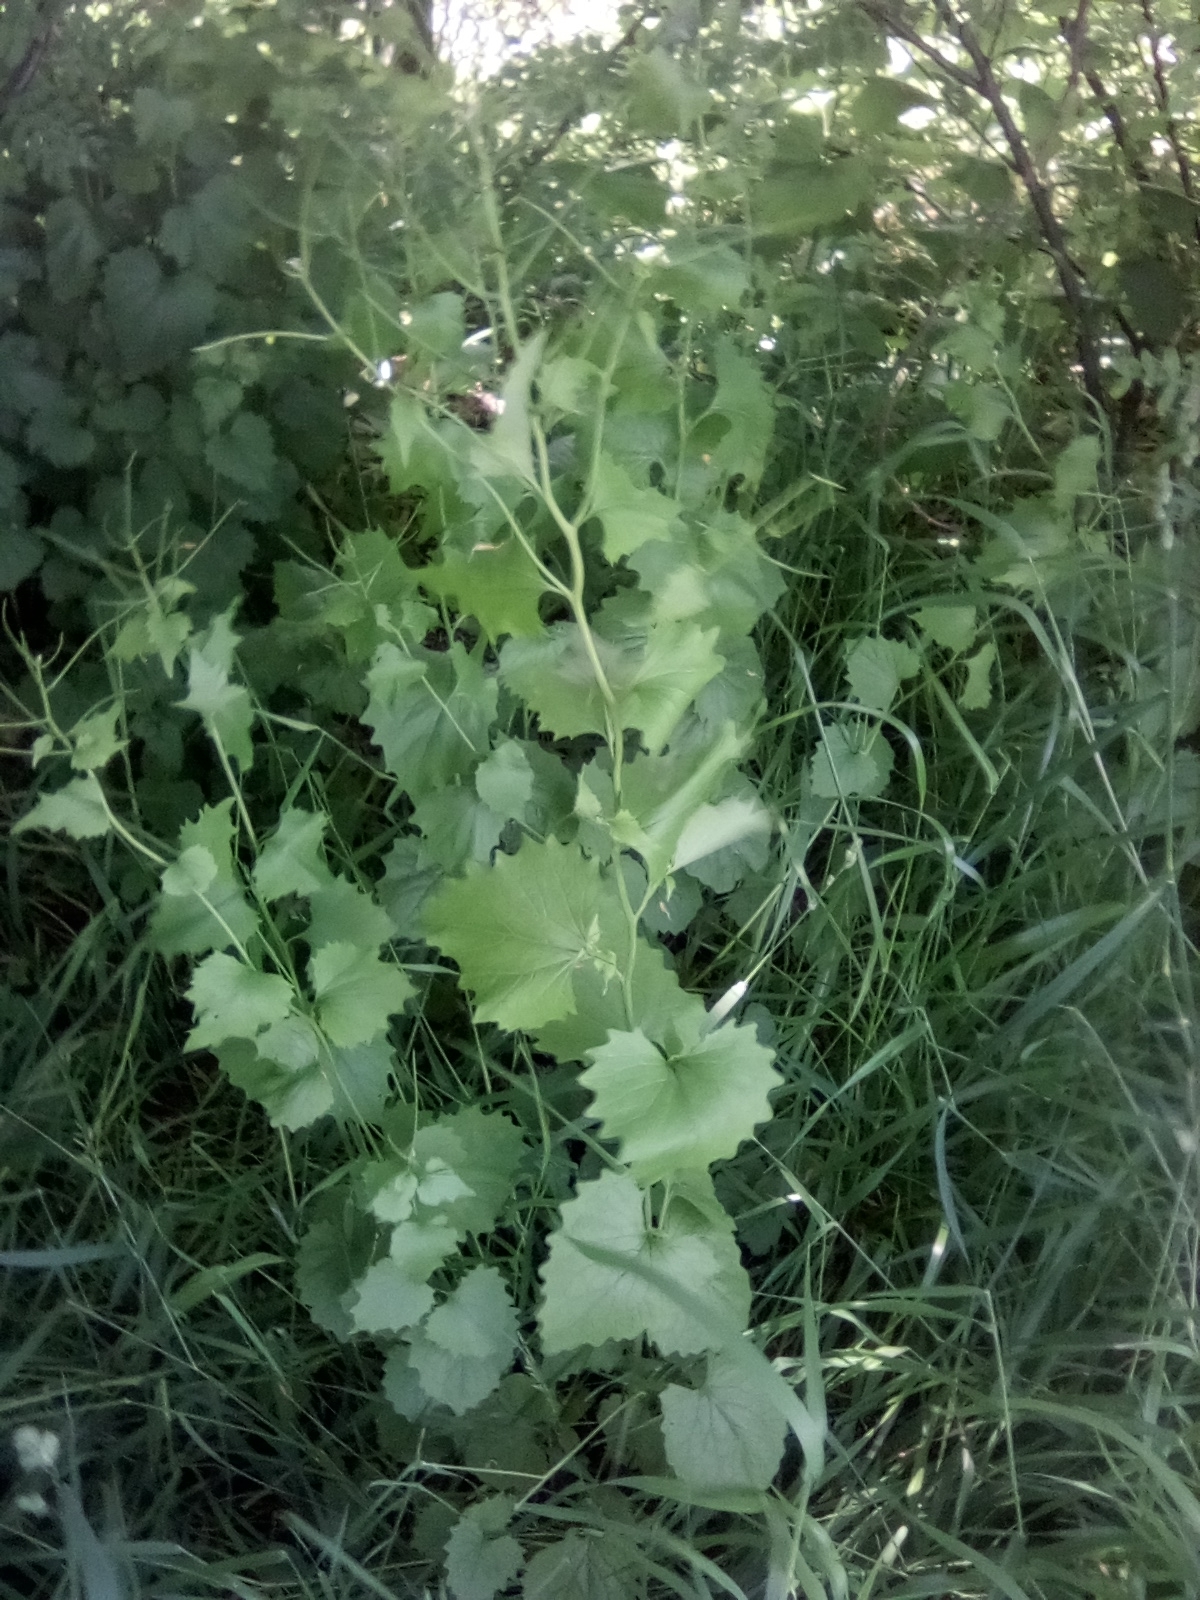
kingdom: Plantae
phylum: Tracheophyta
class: Magnoliopsida
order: Brassicales
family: Brassicaceae
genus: Alliaria
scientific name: Alliaria petiolata
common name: Garlic mustard
